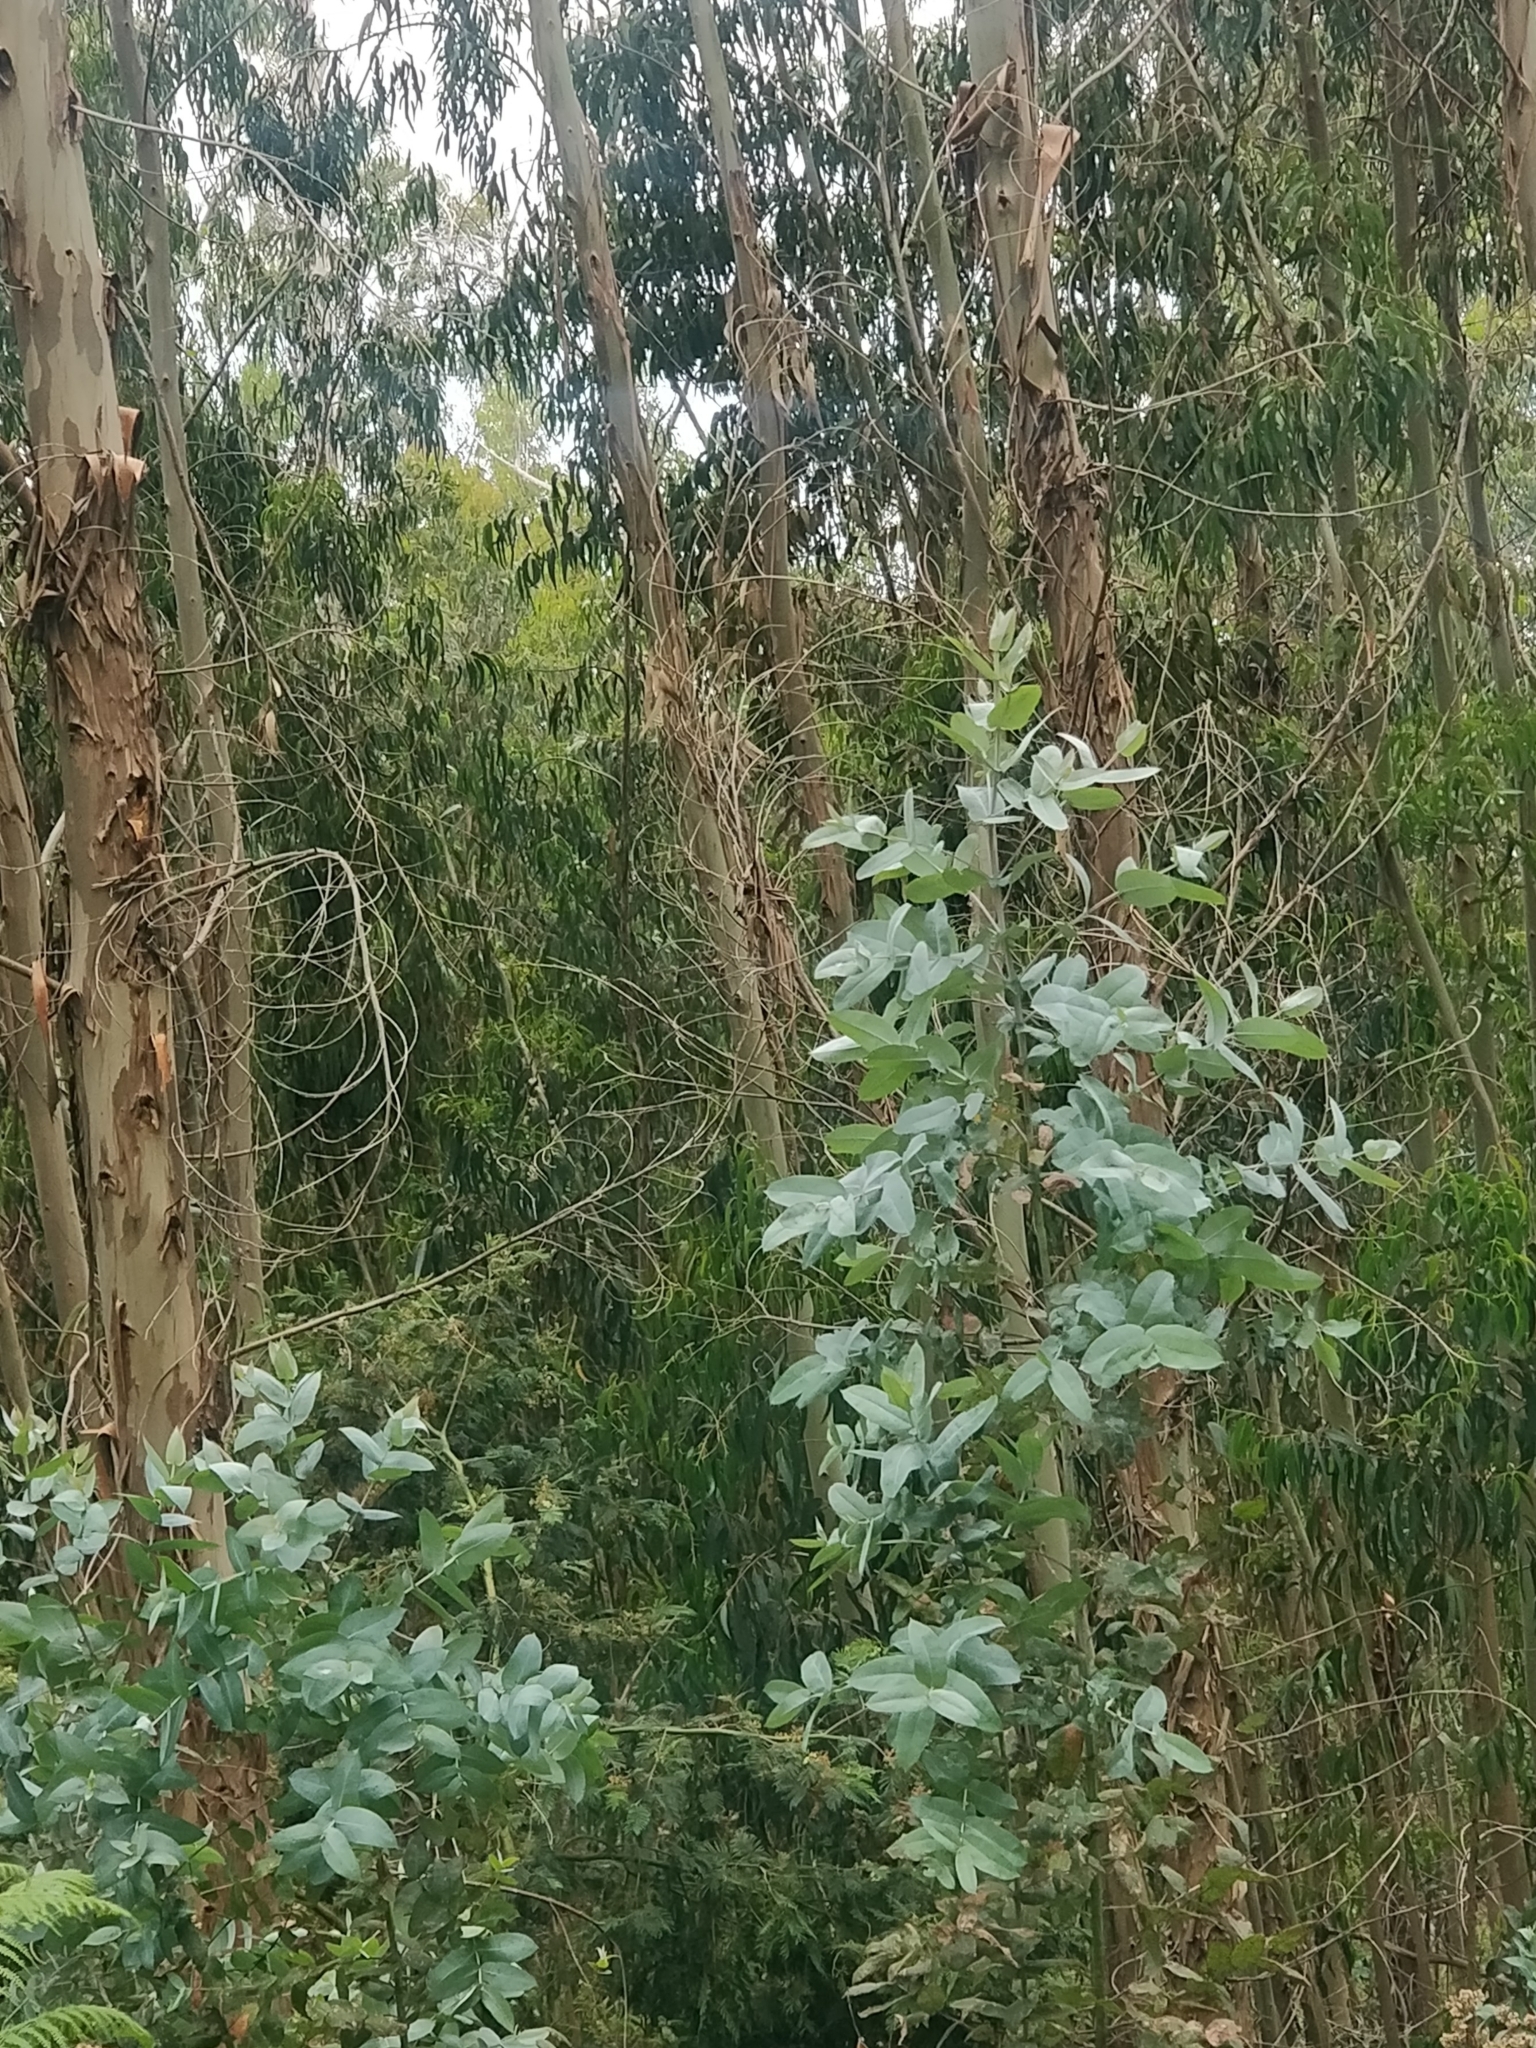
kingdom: Plantae
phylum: Tracheophyta
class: Magnoliopsida
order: Myrtales
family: Myrtaceae
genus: Eucalyptus
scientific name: Eucalyptus globulus
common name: Southern blue-gum
